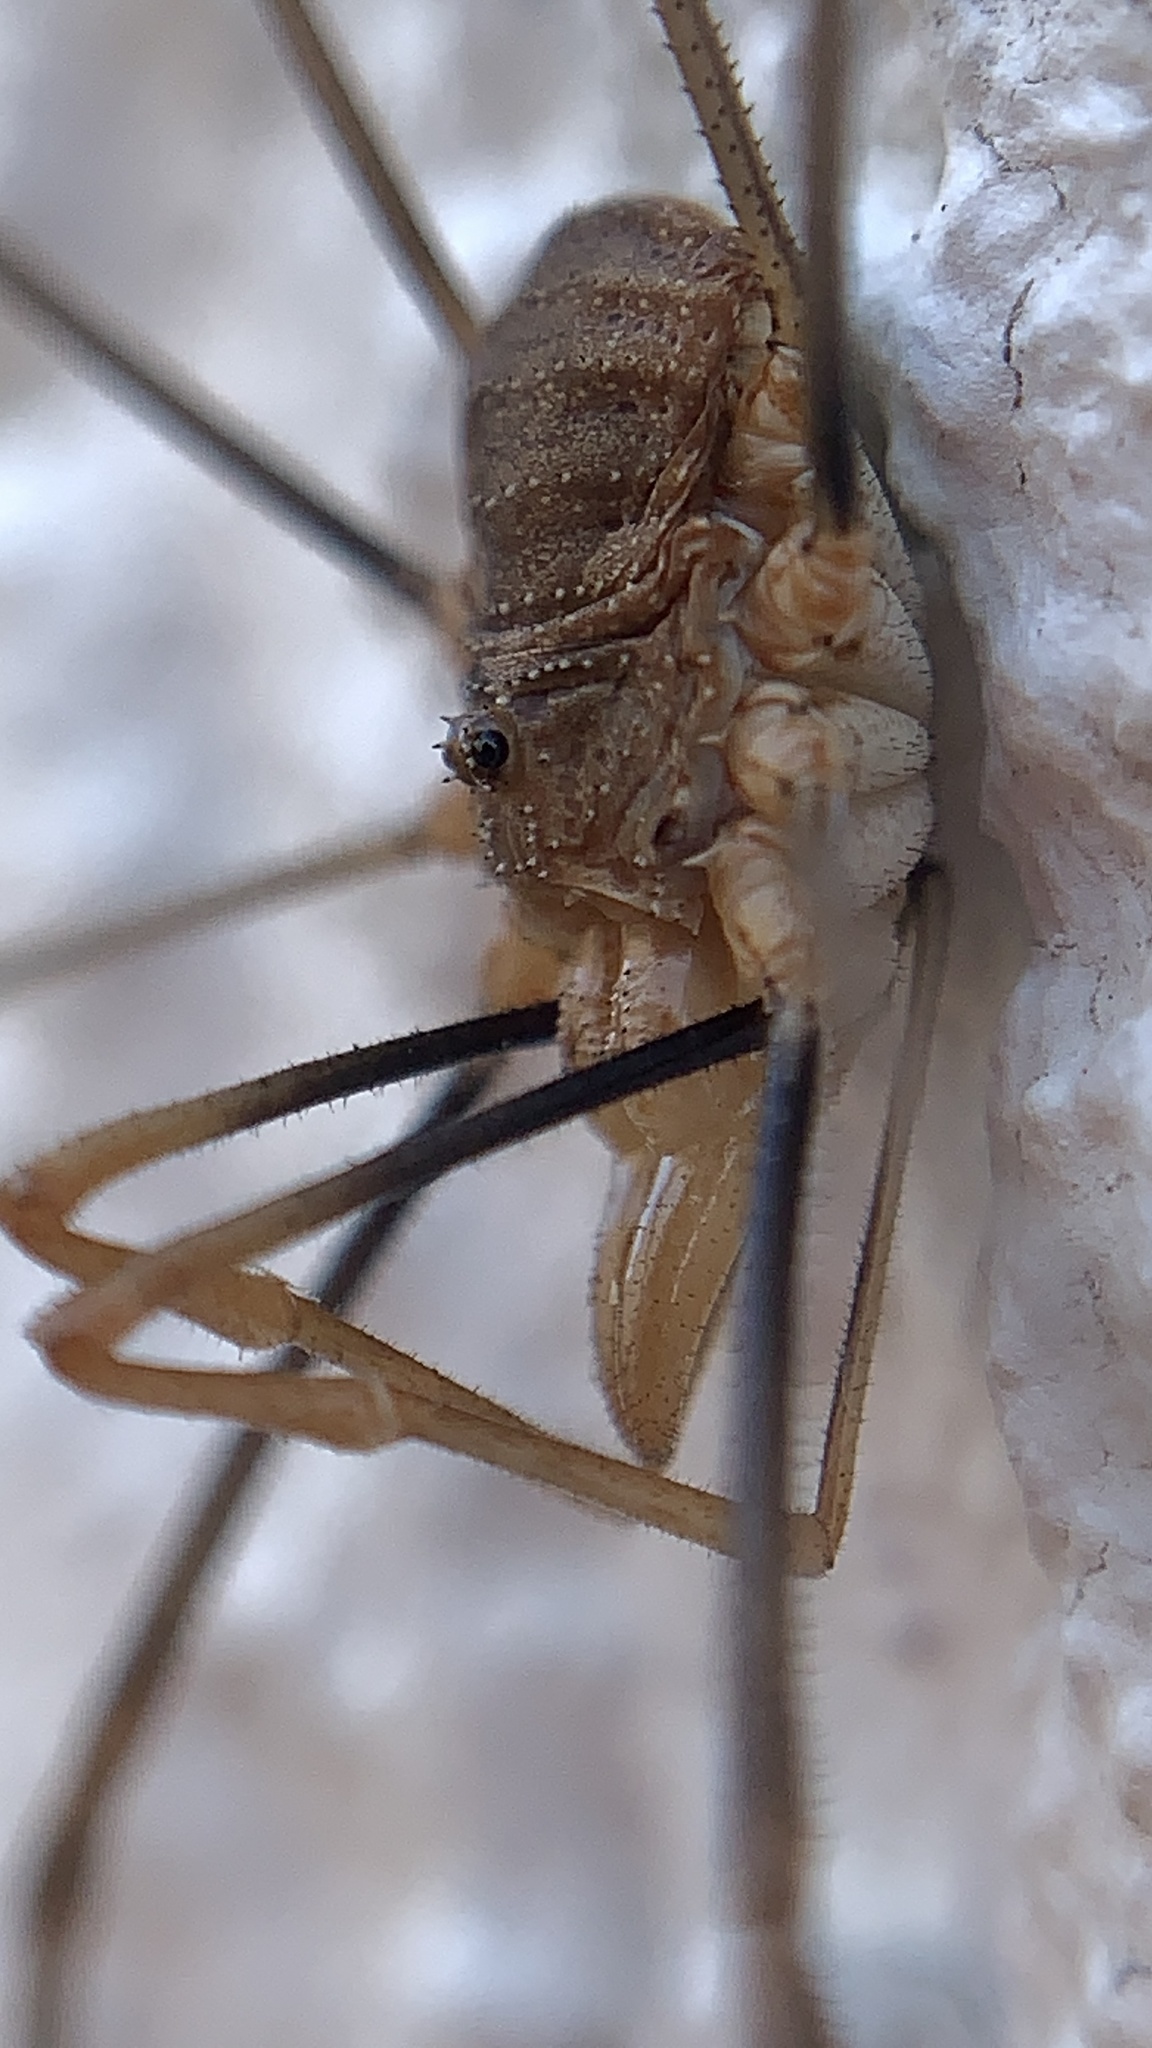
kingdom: Animalia
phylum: Arthropoda
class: Arachnida
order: Opiliones
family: Phalangiidae
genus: Phalangium
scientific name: Phalangium opilio
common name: Daddy longleg
